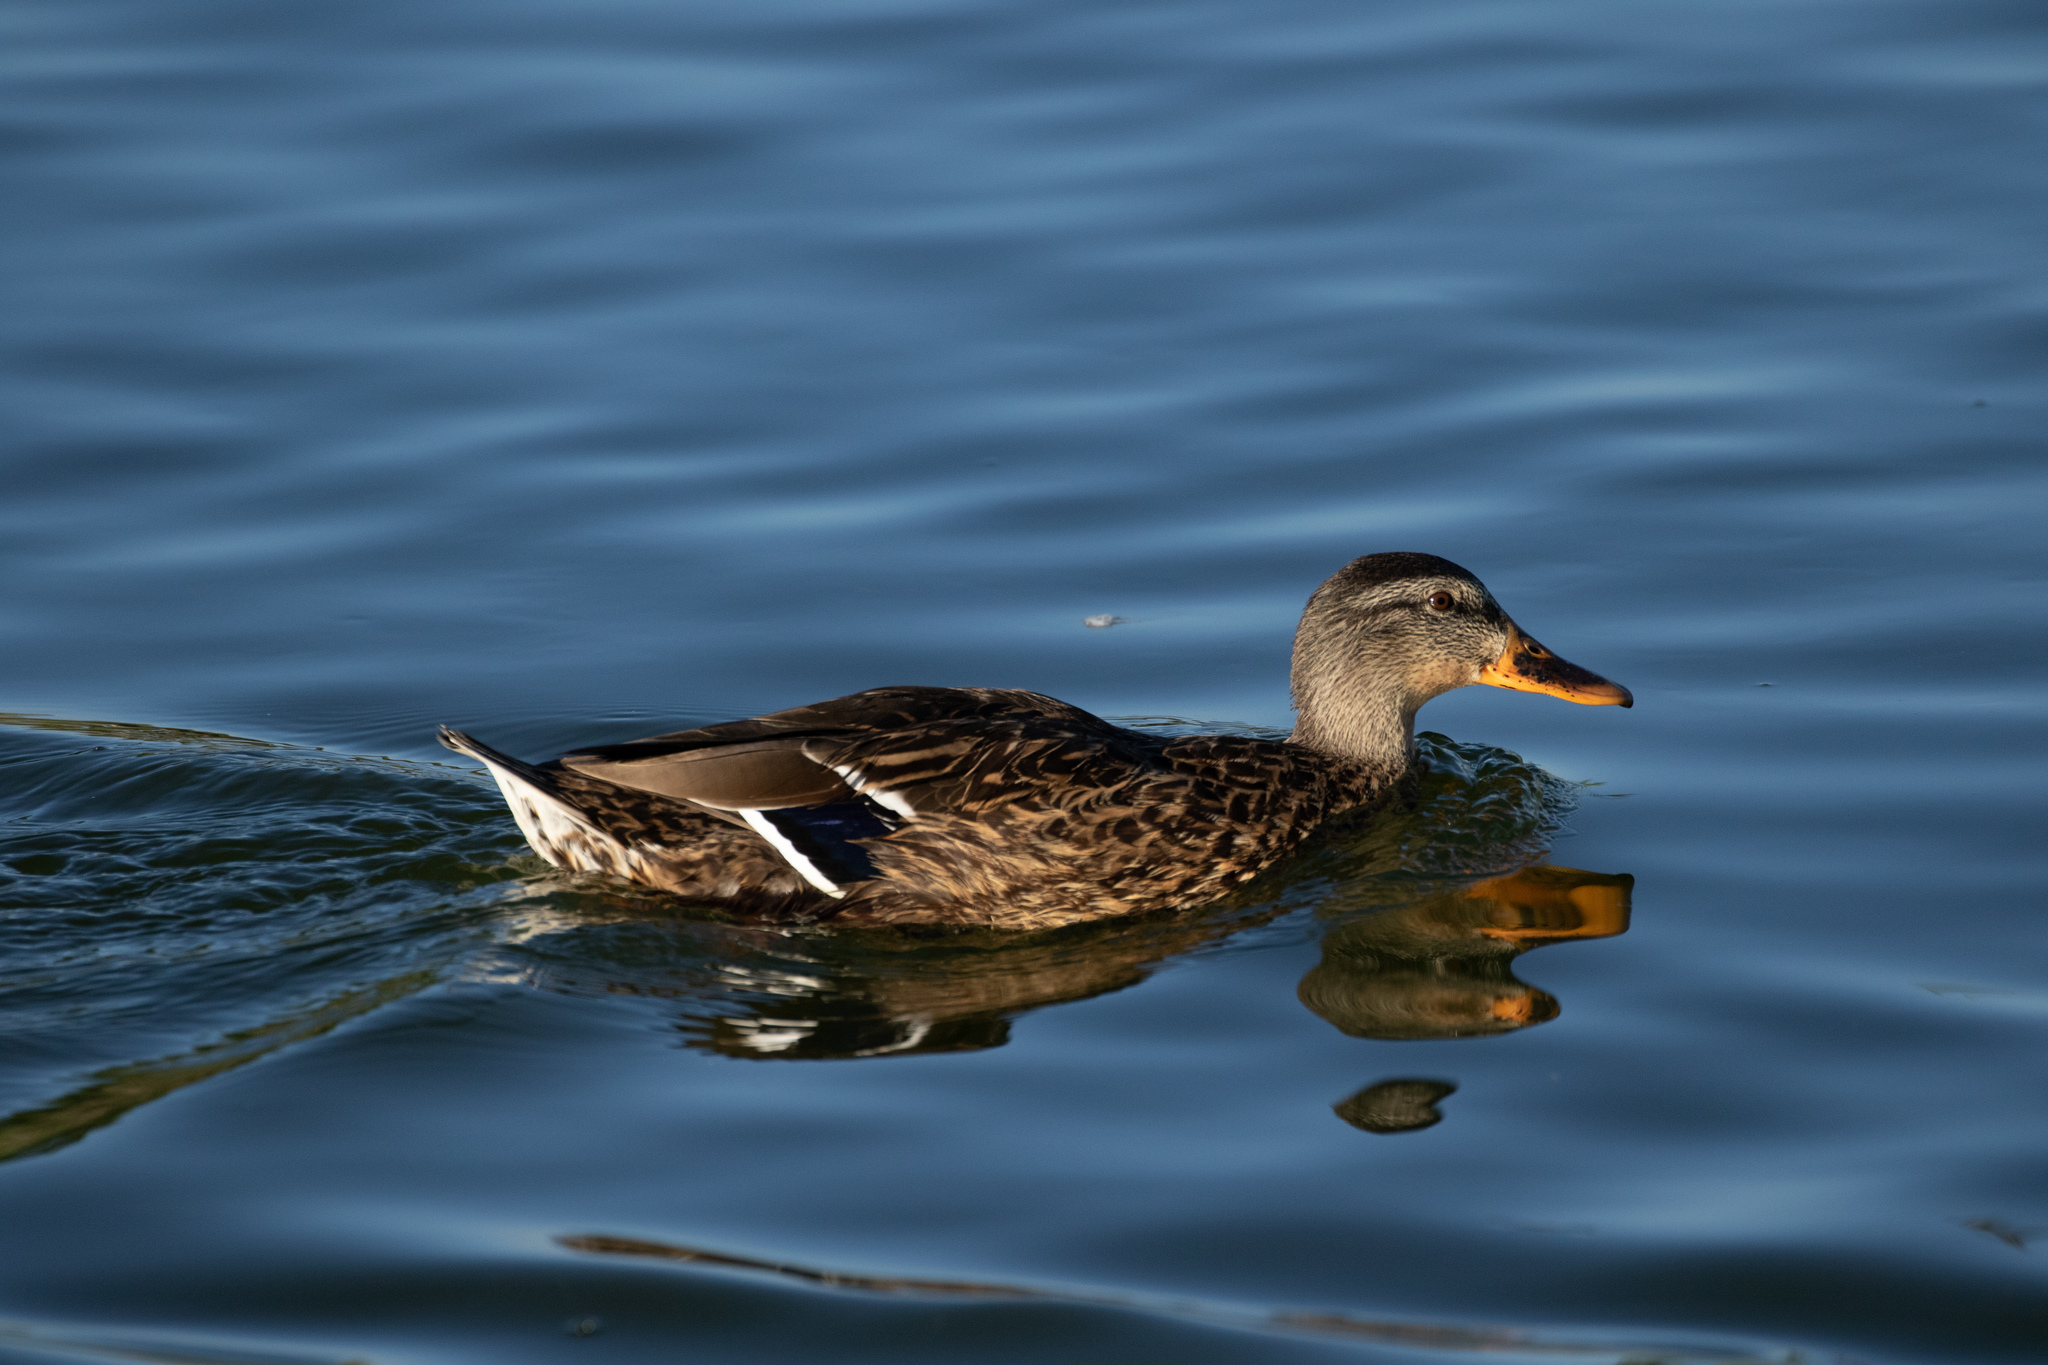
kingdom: Animalia
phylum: Chordata
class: Aves
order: Anseriformes
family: Anatidae
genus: Anas
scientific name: Anas platyrhynchos
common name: Mallard
